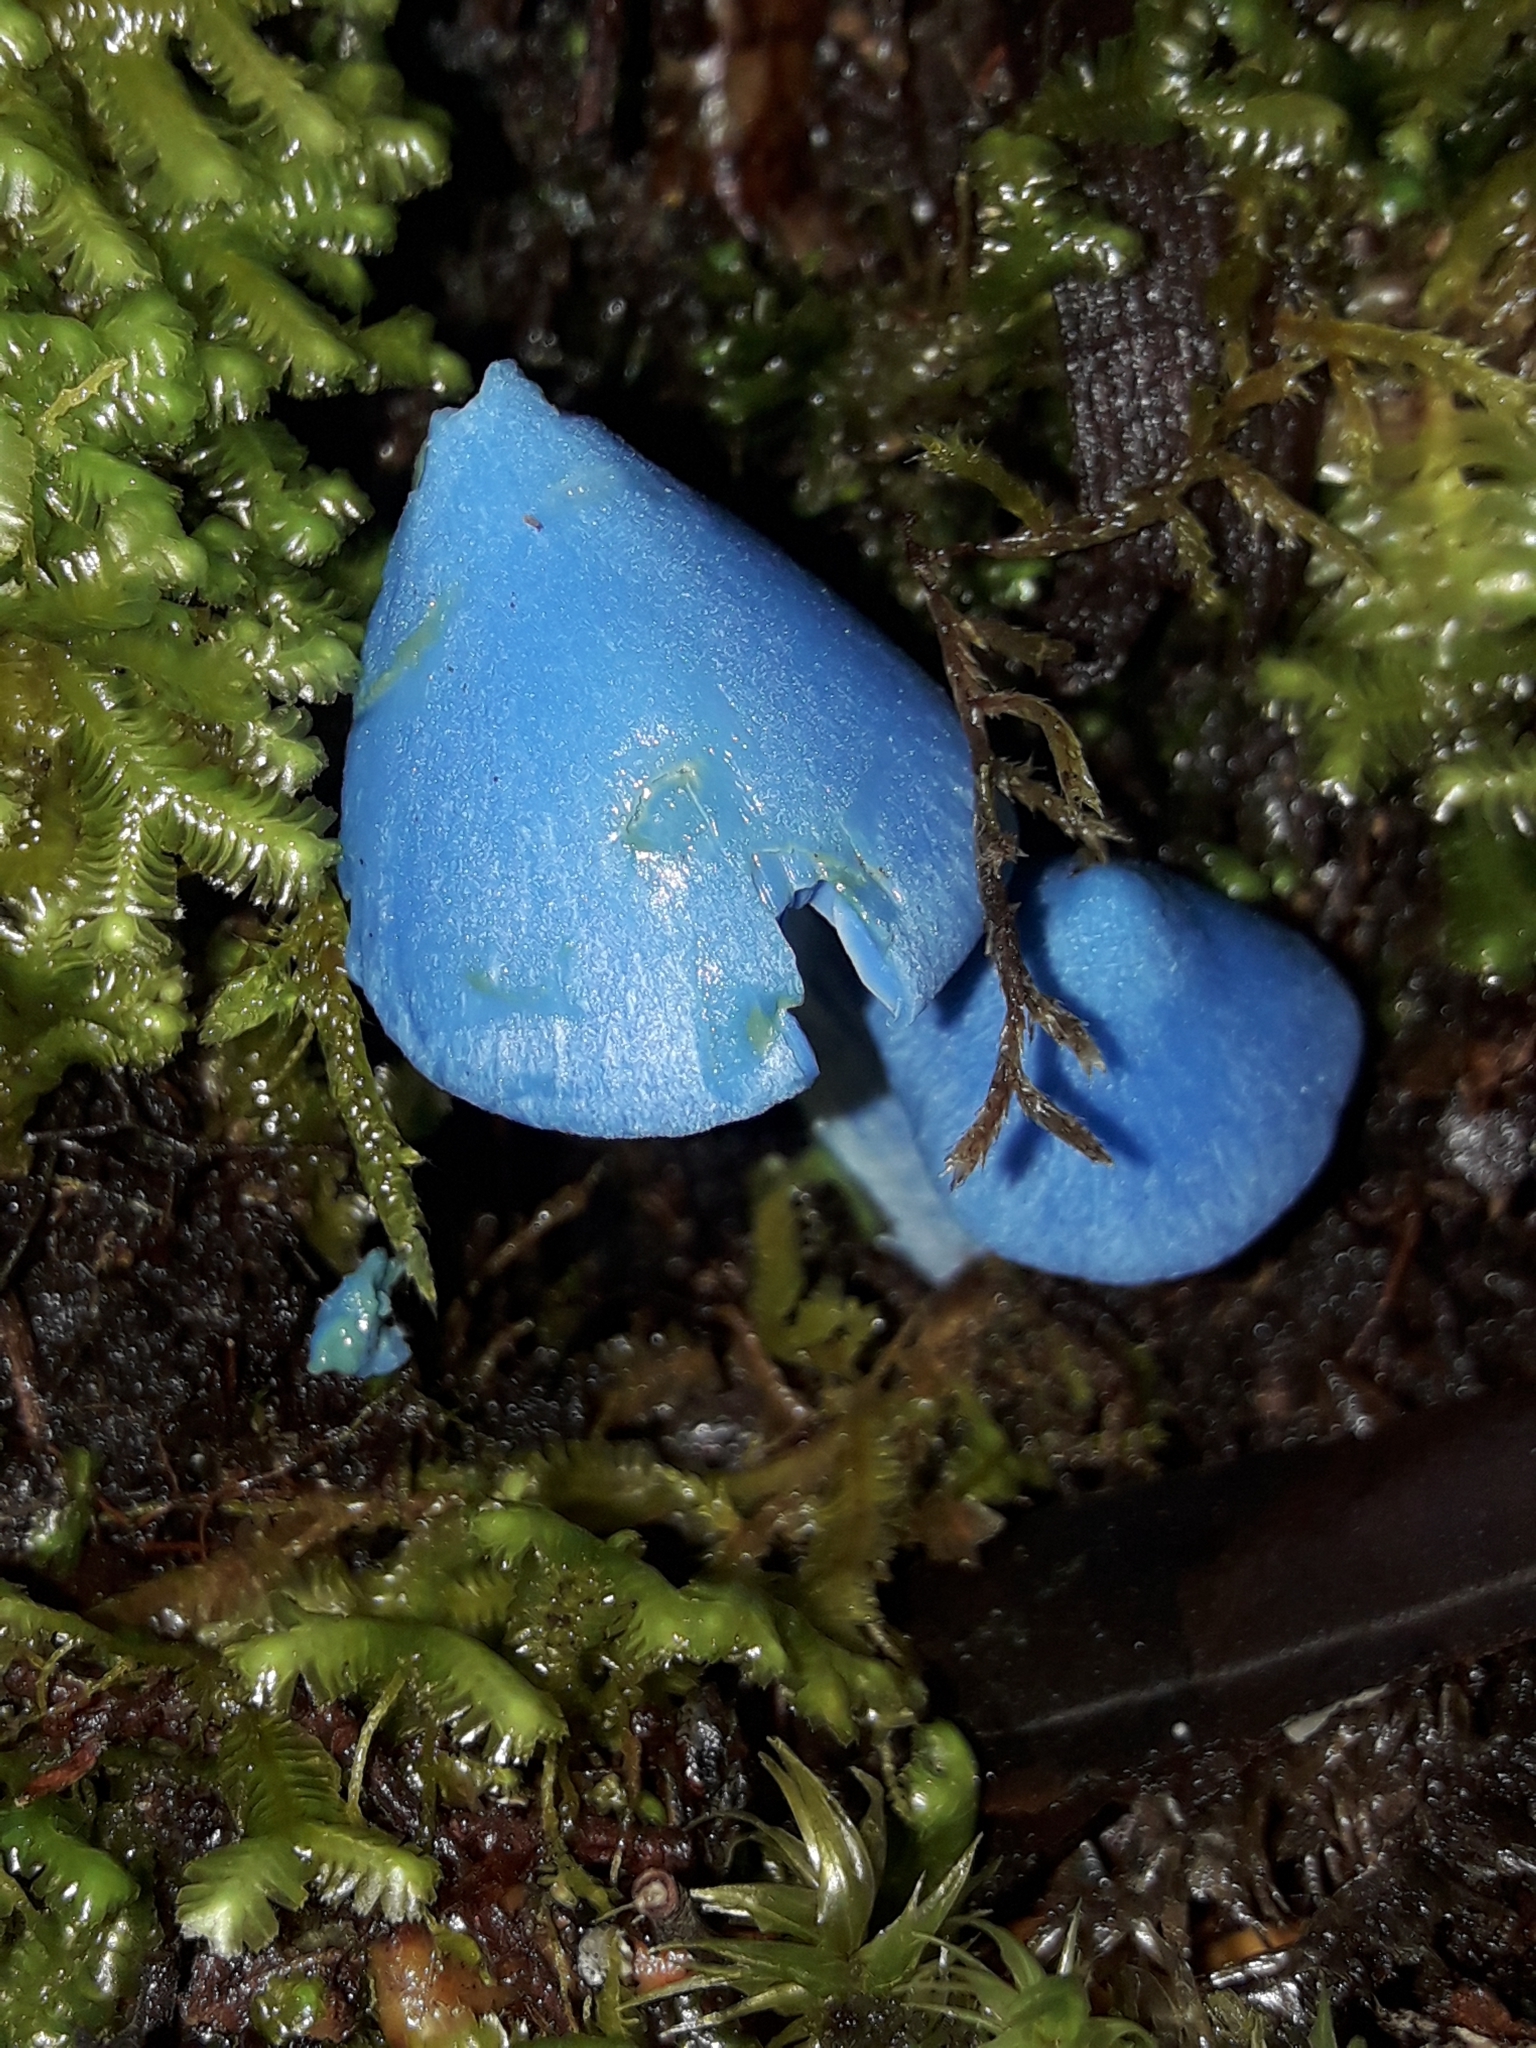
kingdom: Fungi
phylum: Basidiomycota
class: Agaricomycetes
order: Agaricales
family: Entolomataceae
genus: Entoloma
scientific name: Entoloma hochstetteri
